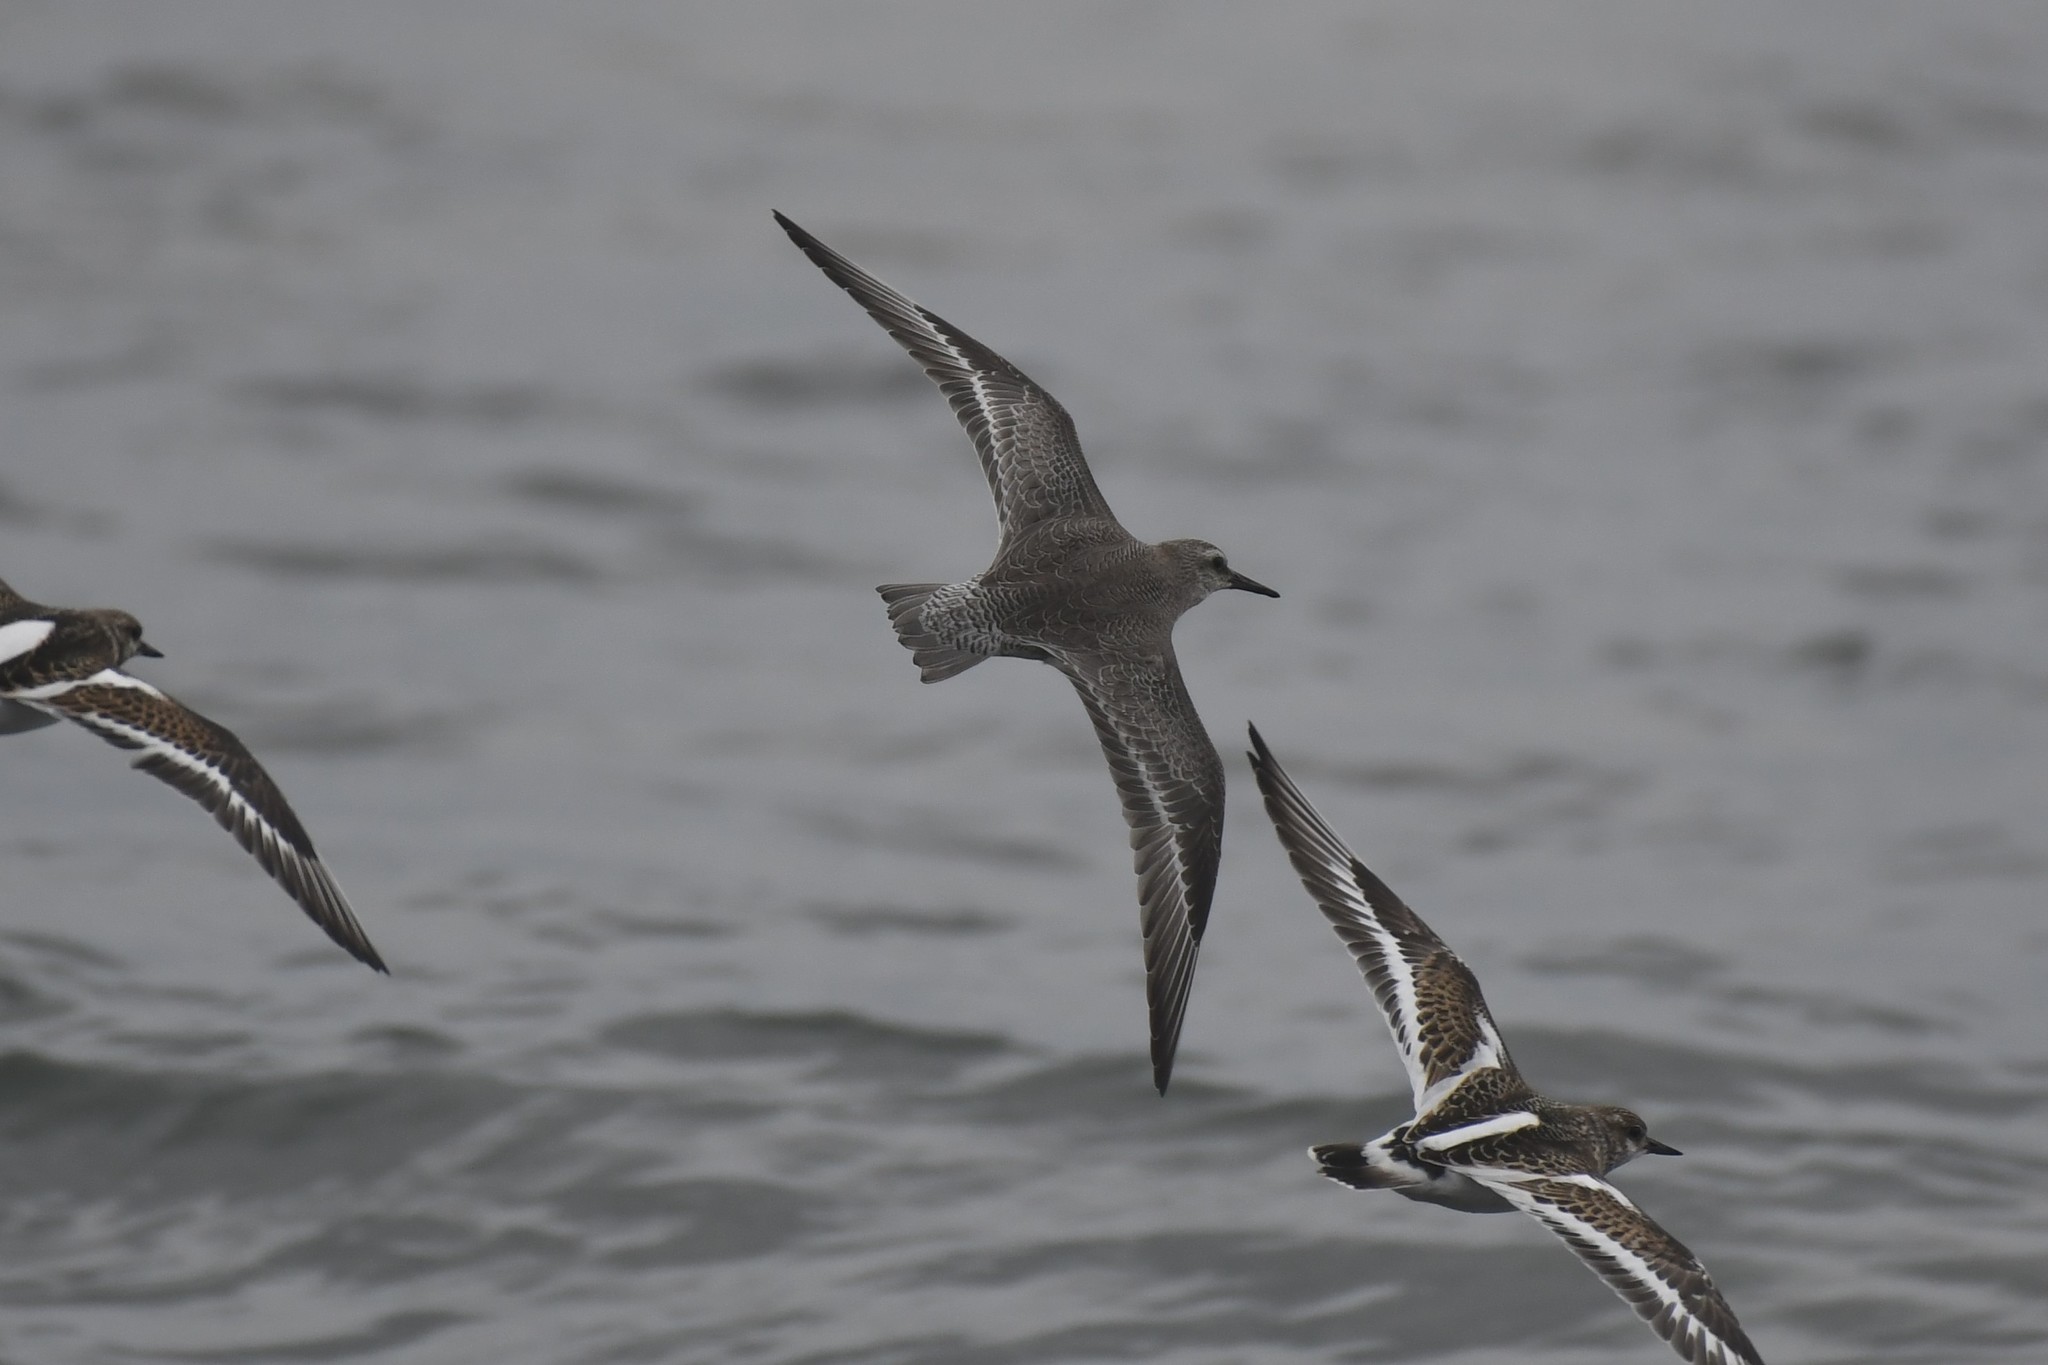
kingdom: Animalia
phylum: Chordata
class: Aves
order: Charadriiformes
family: Scolopacidae
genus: Calidris
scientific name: Calidris canutus
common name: Red knot
